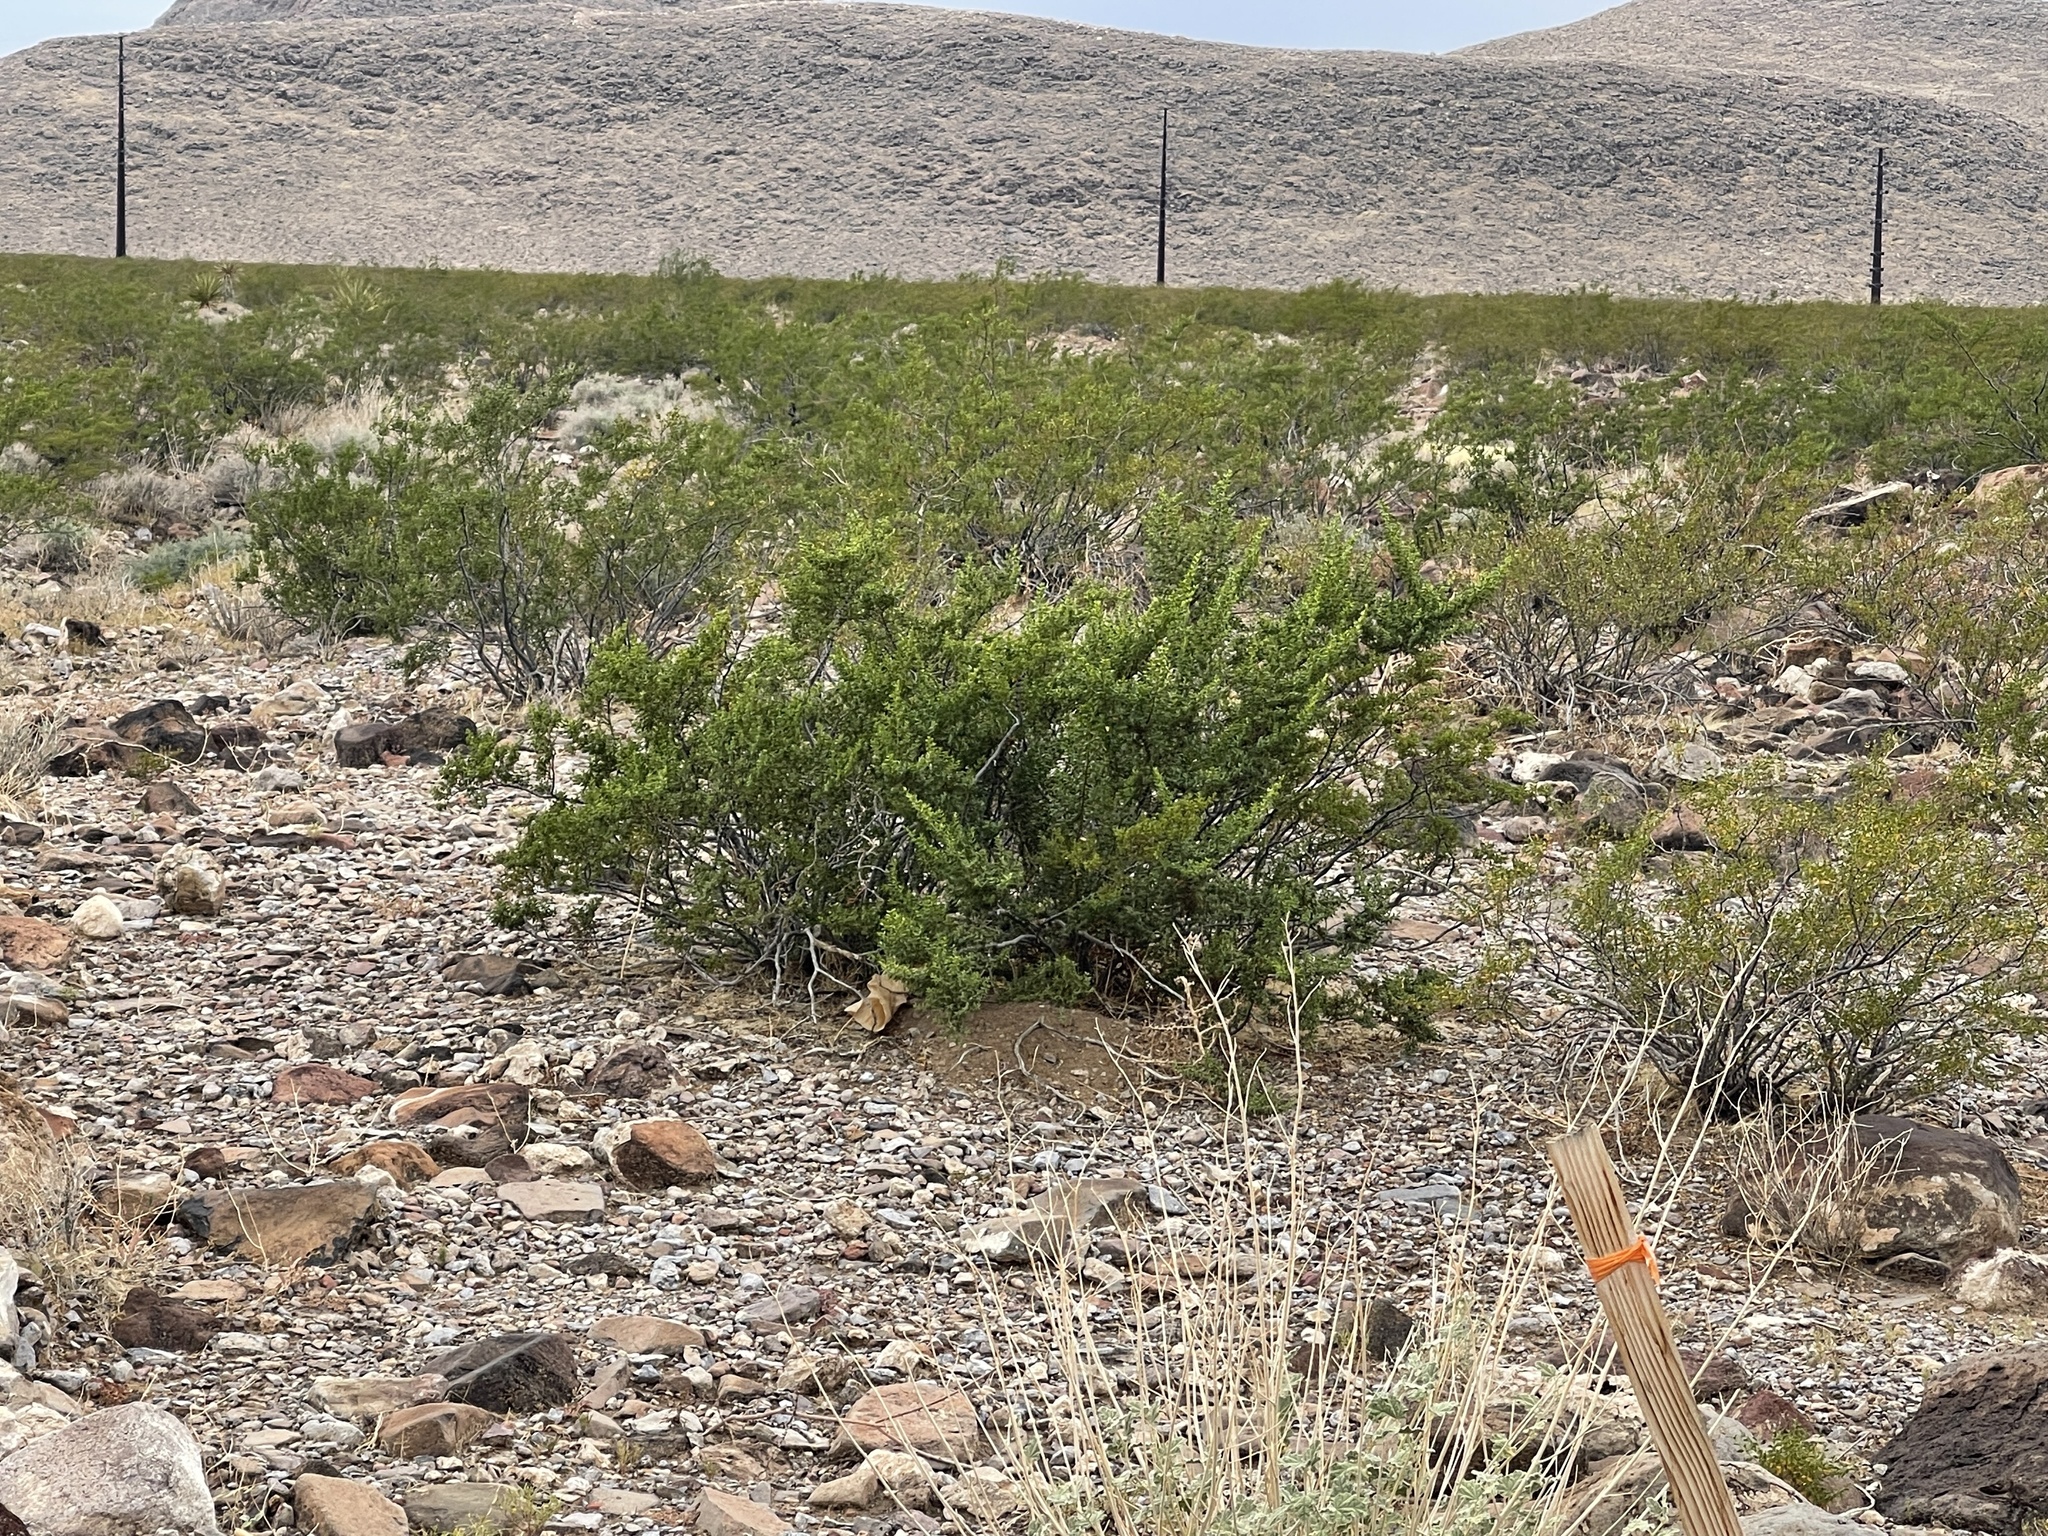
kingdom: Plantae
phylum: Tracheophyta
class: Magnoliopsida
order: Zygophyllales
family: Zygophyllaceae
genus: Larrea
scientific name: Larrea tridentata
